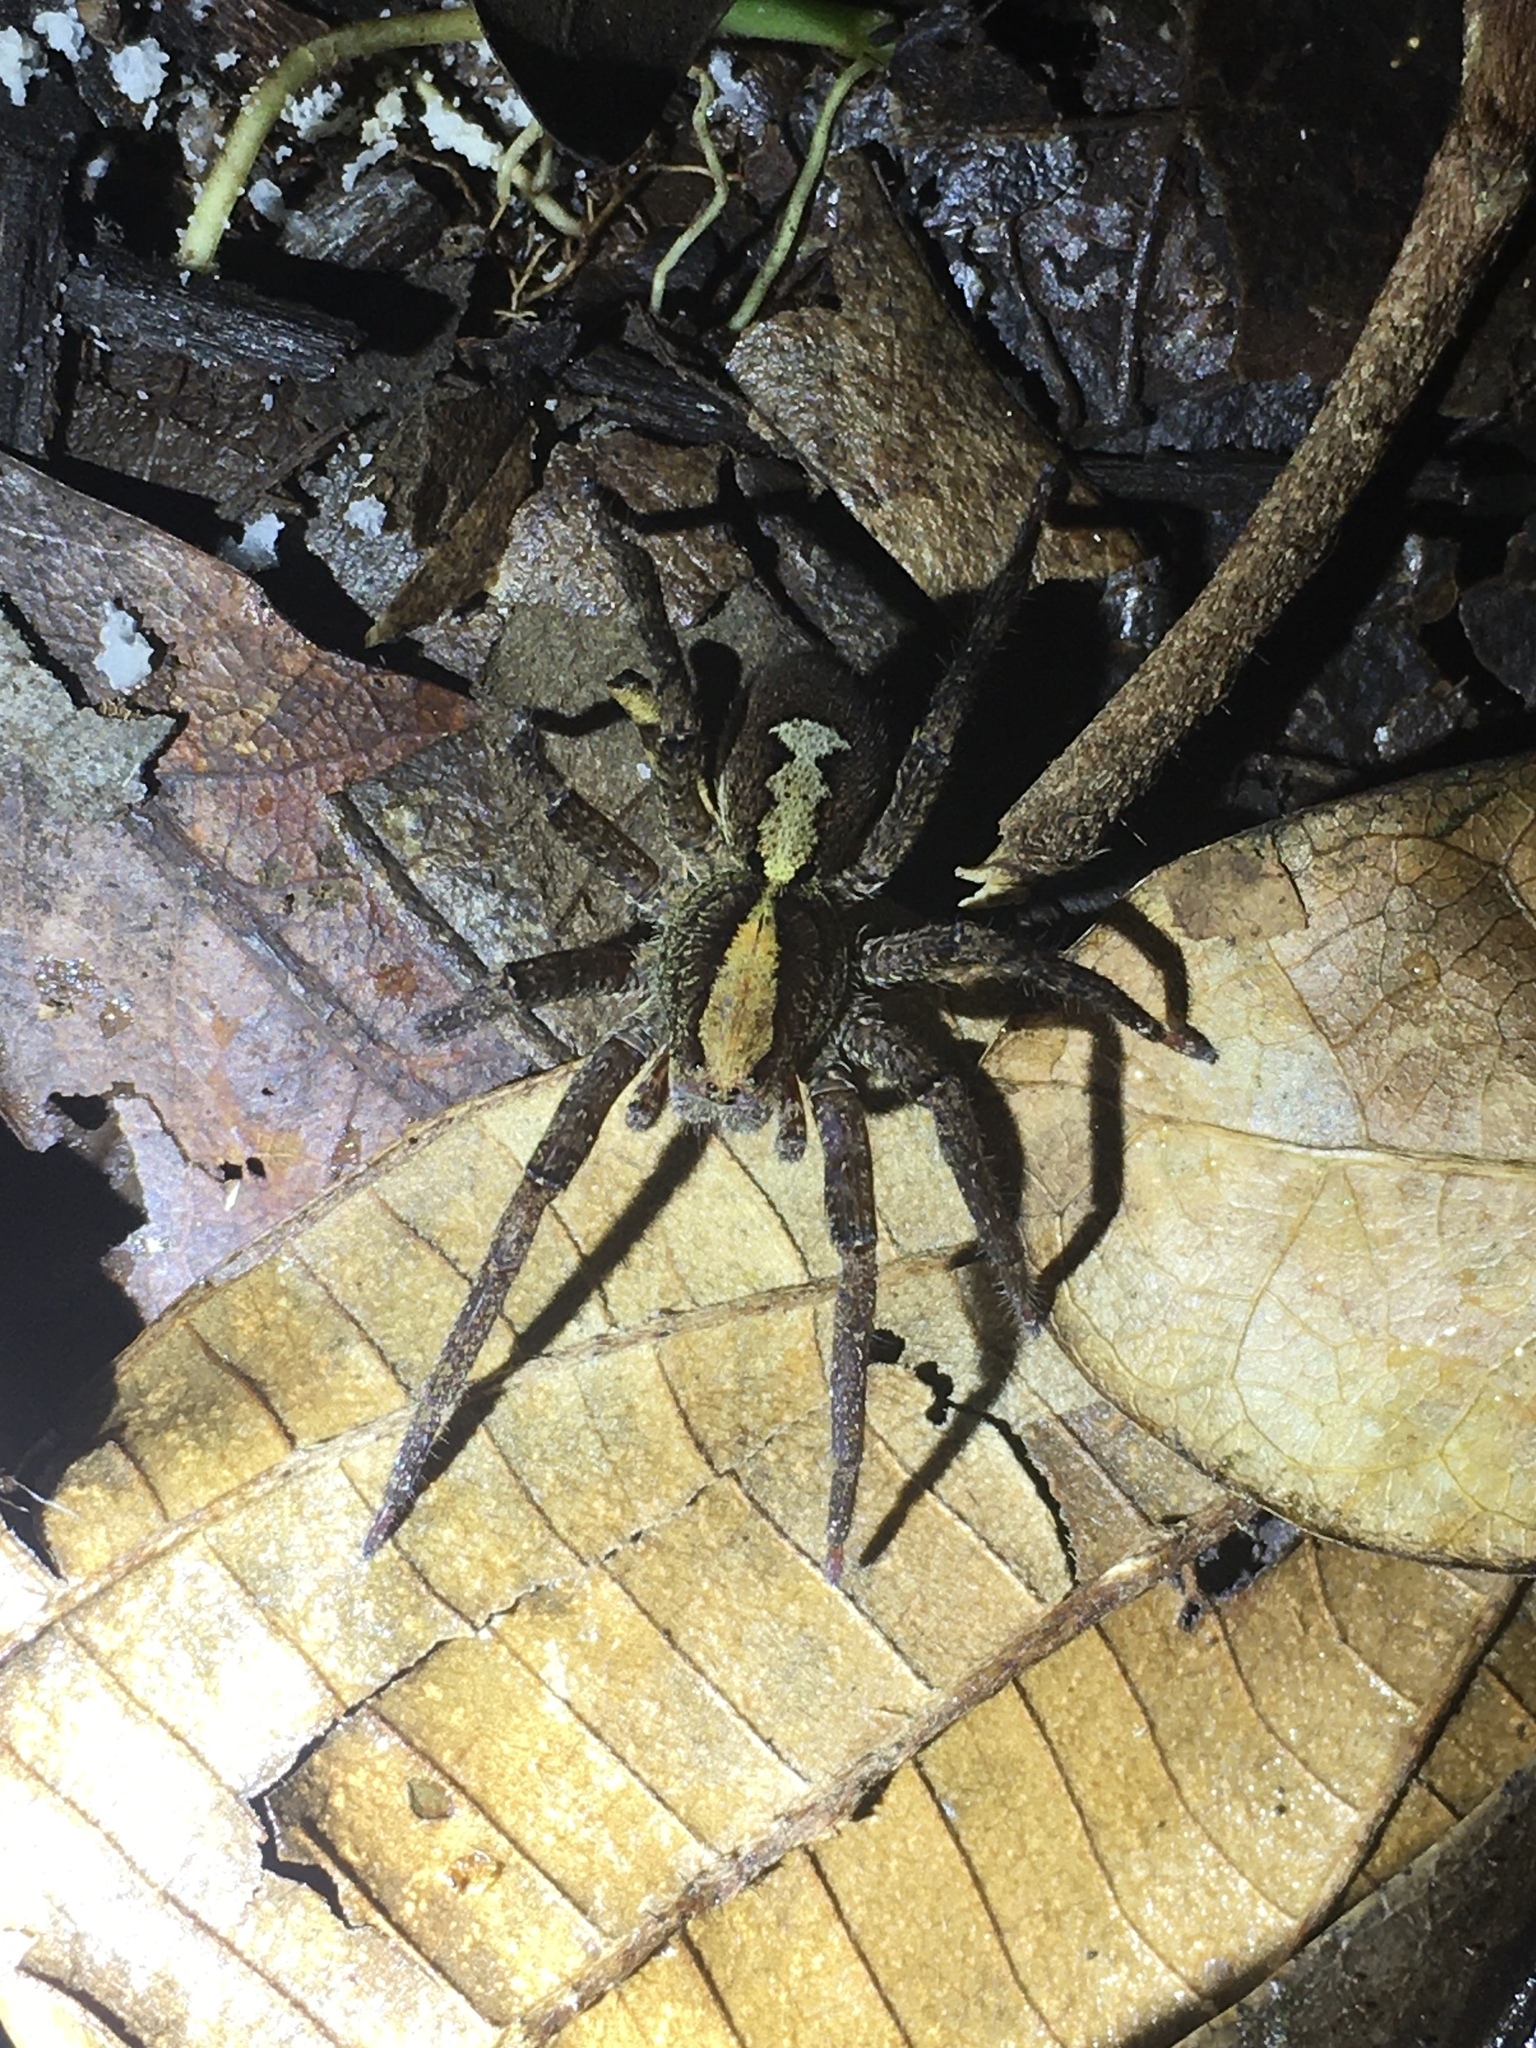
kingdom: Animalia
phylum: Arthropoda
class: Arachnida
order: Araneae
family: Ctenidae
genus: Ctenus
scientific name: Ctenus ornatus
